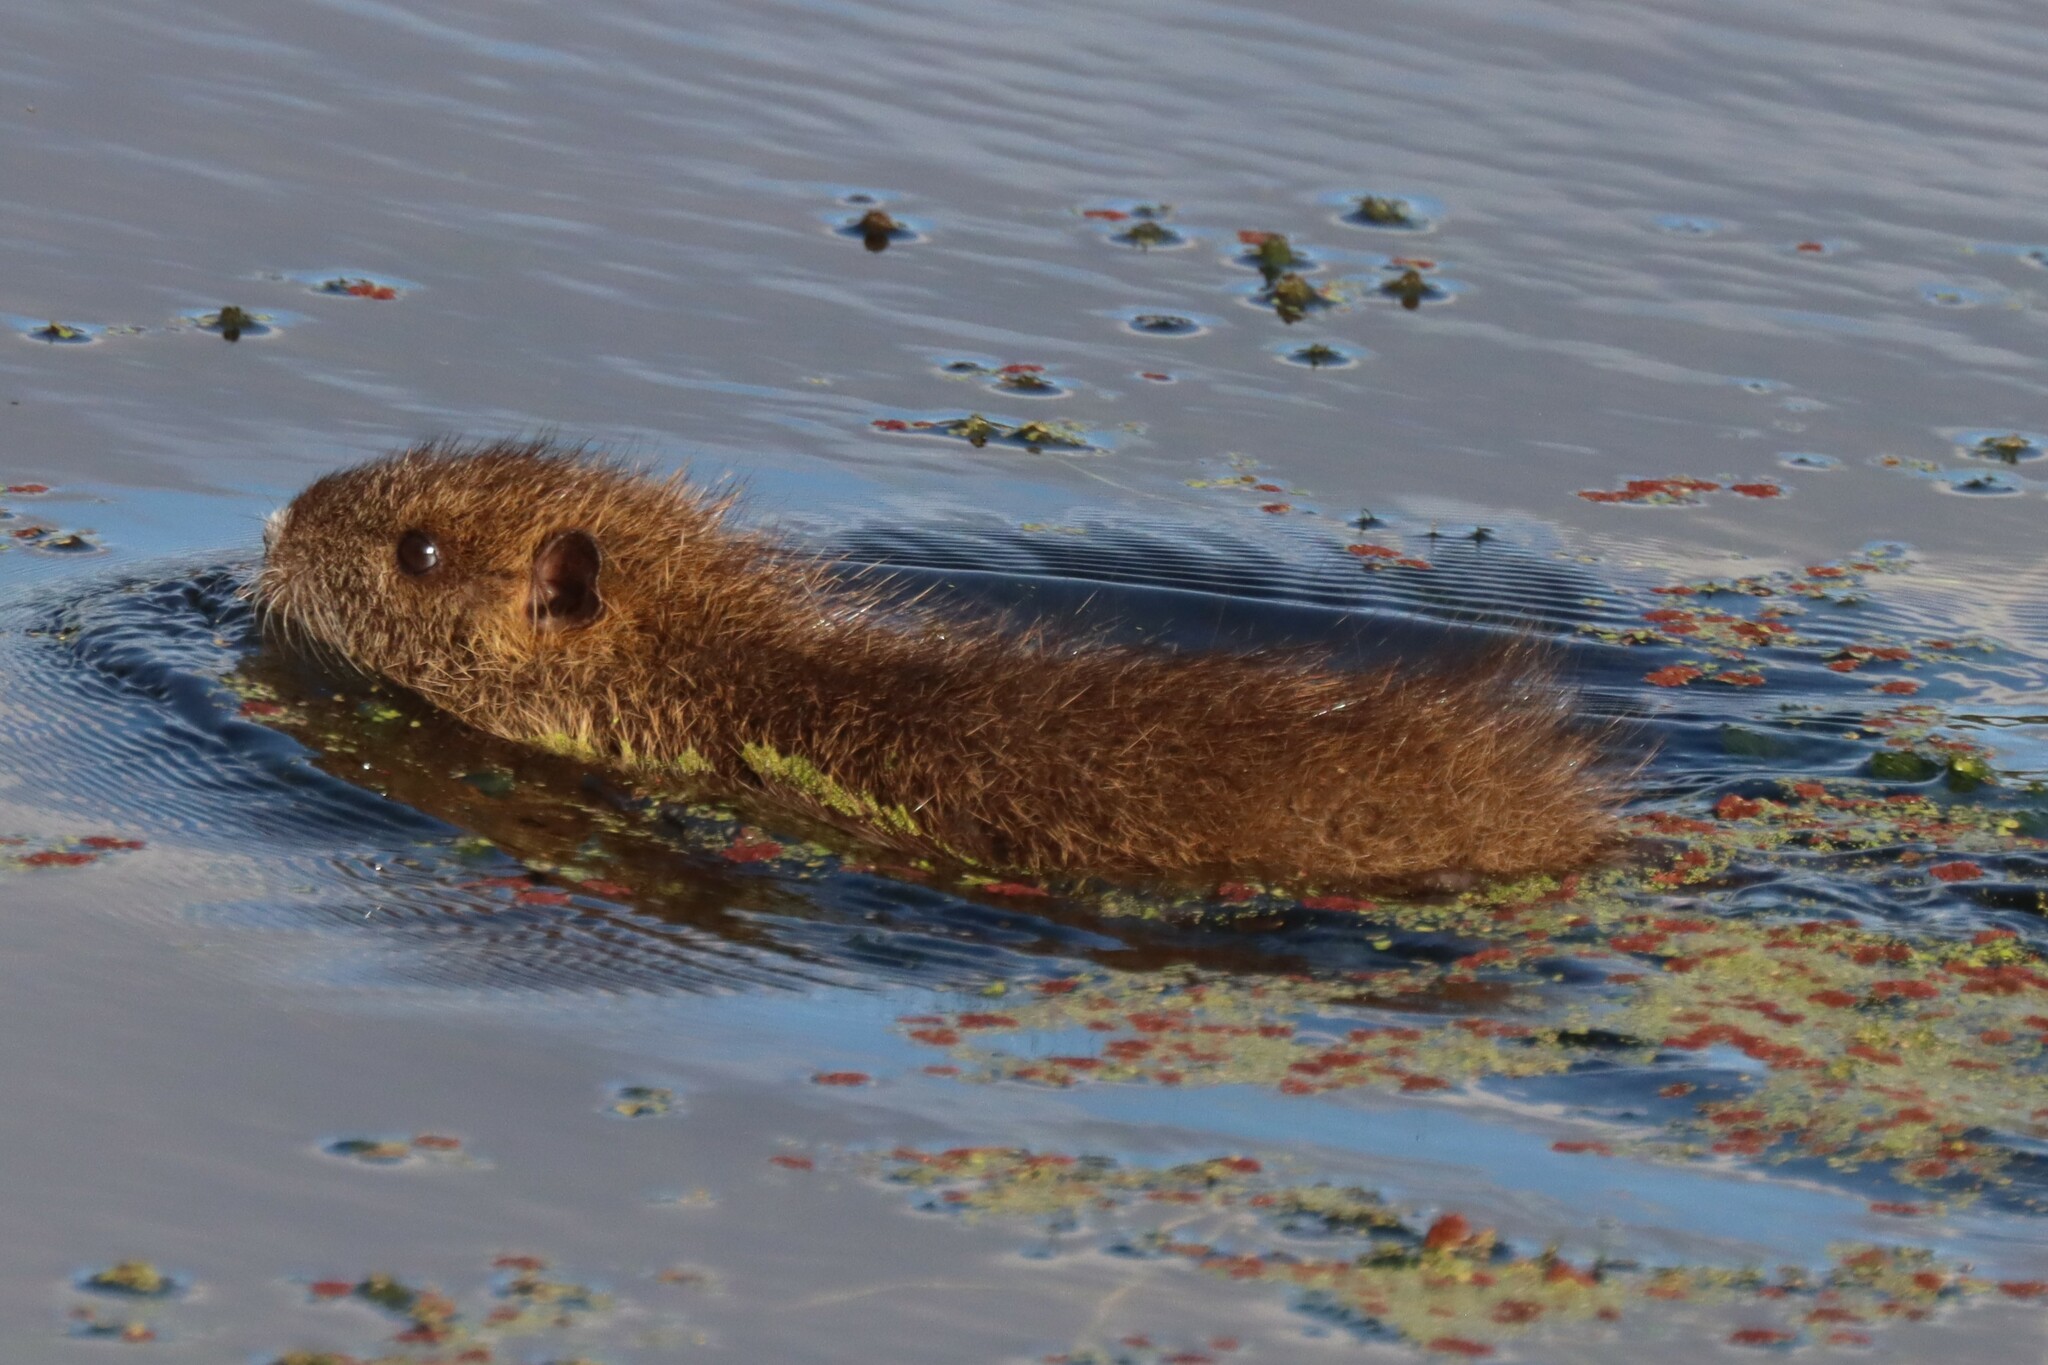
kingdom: Animalia
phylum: Chordata
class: Mammalia
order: Rodentia
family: Myocastoridae
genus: Myocastor
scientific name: Myocastor coypus
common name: Coypu
